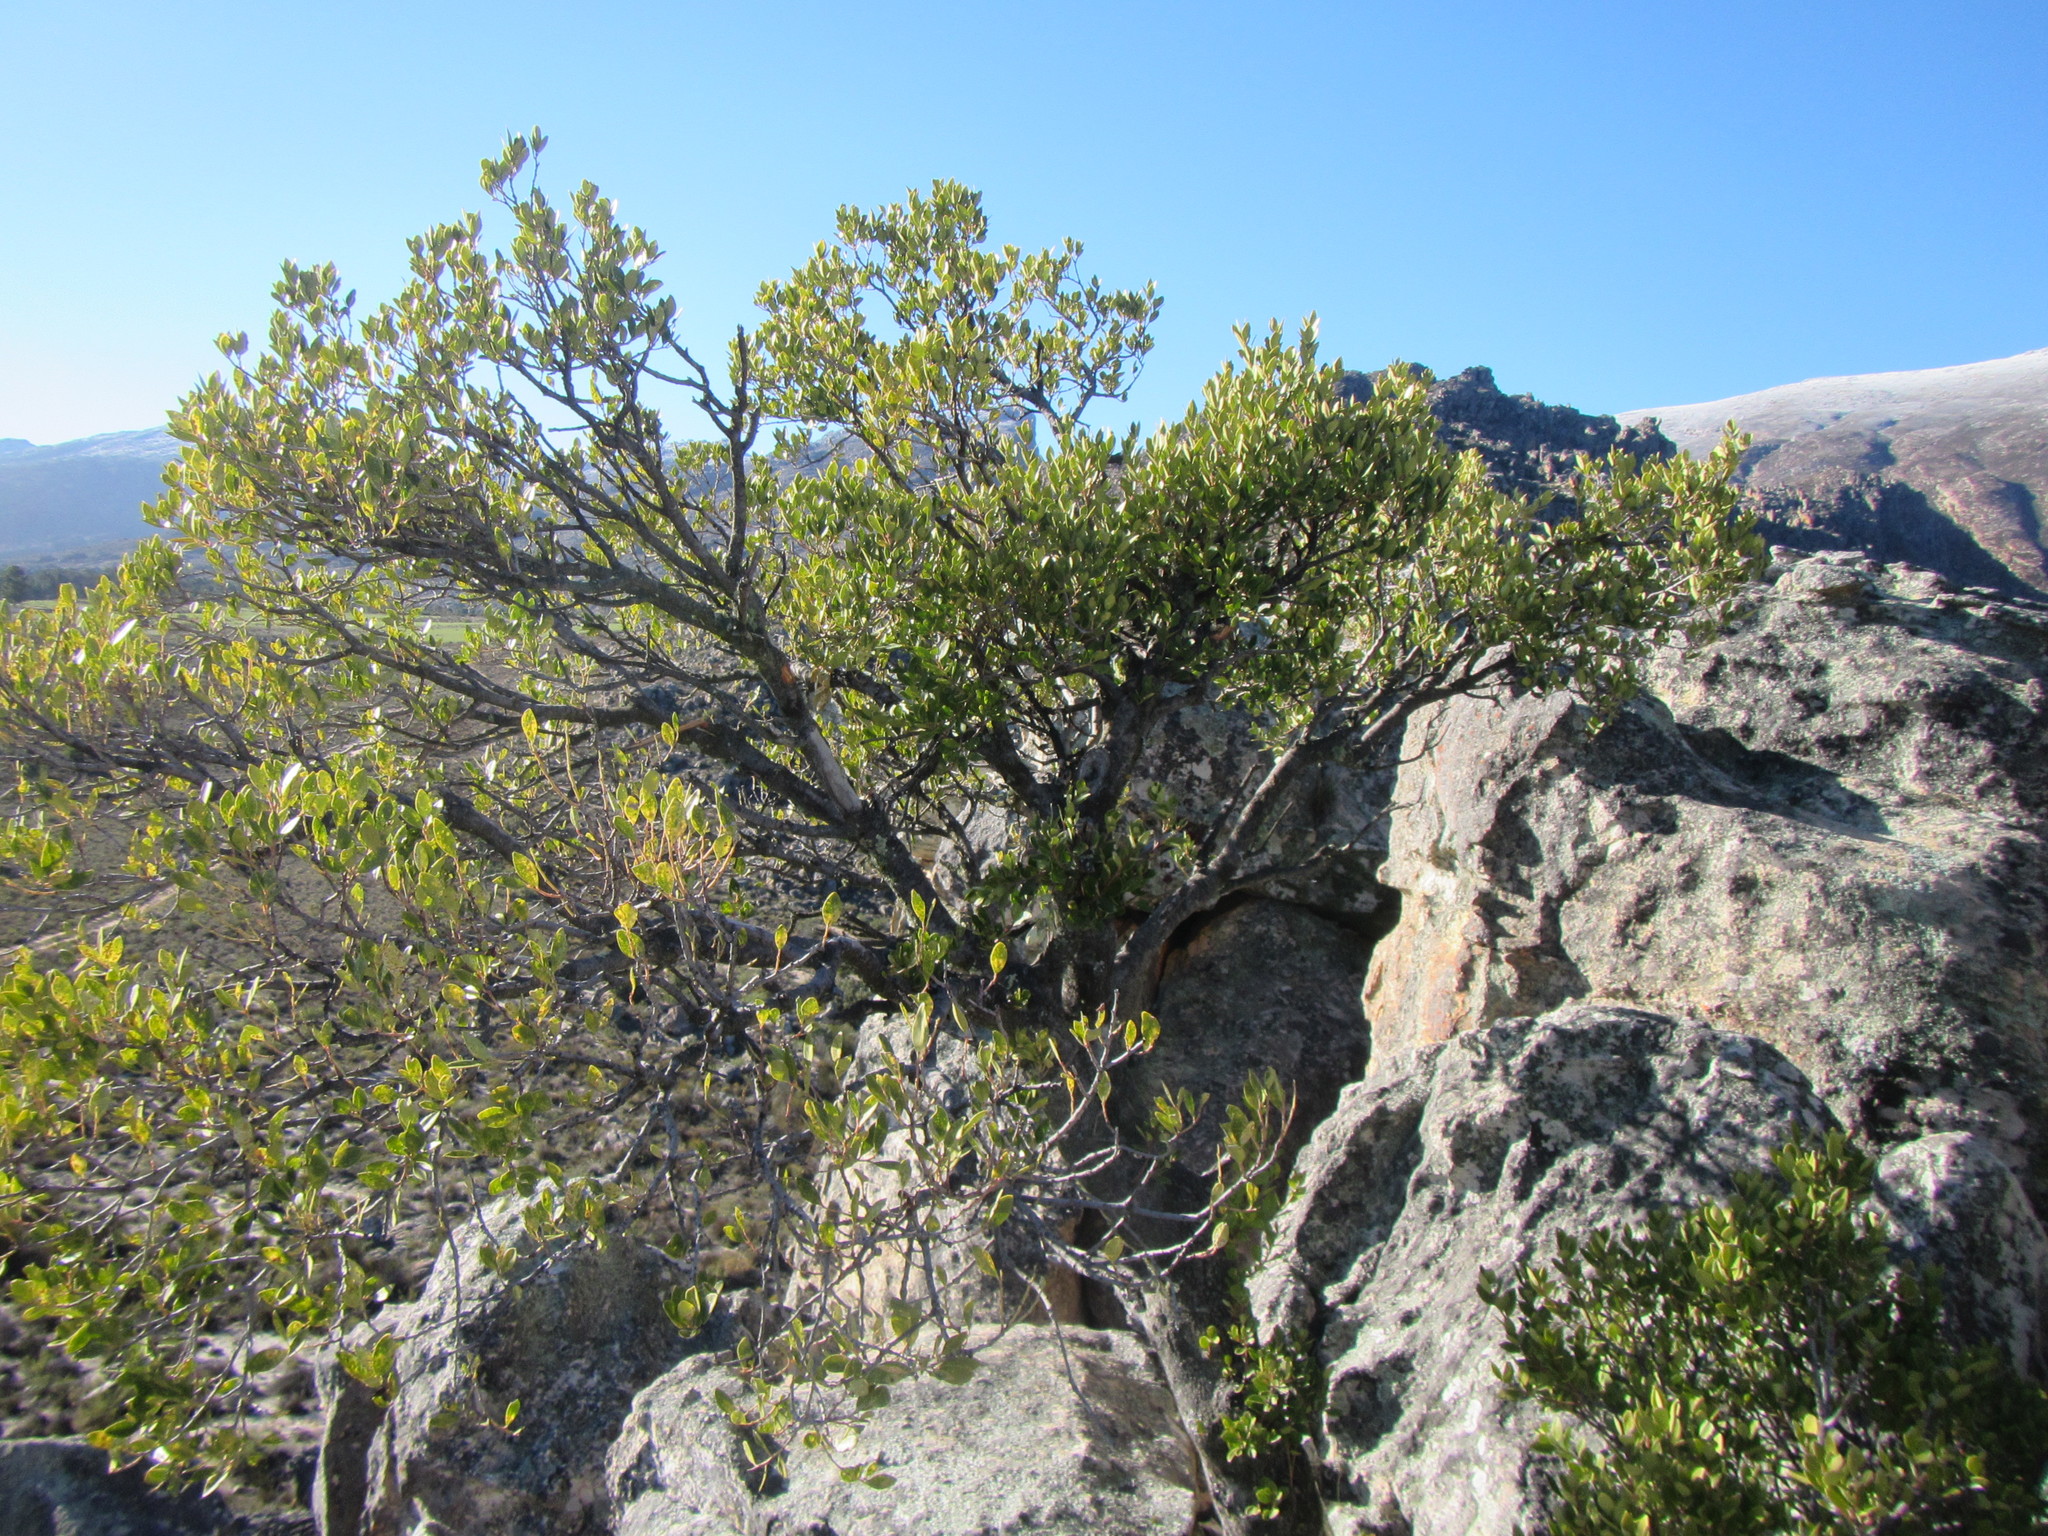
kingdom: Plantae
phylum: Tracheophyta
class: Magnoliopsida
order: Celastrales
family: Celastraceae
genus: Gymnosporia
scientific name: Gymnosporia laurina
